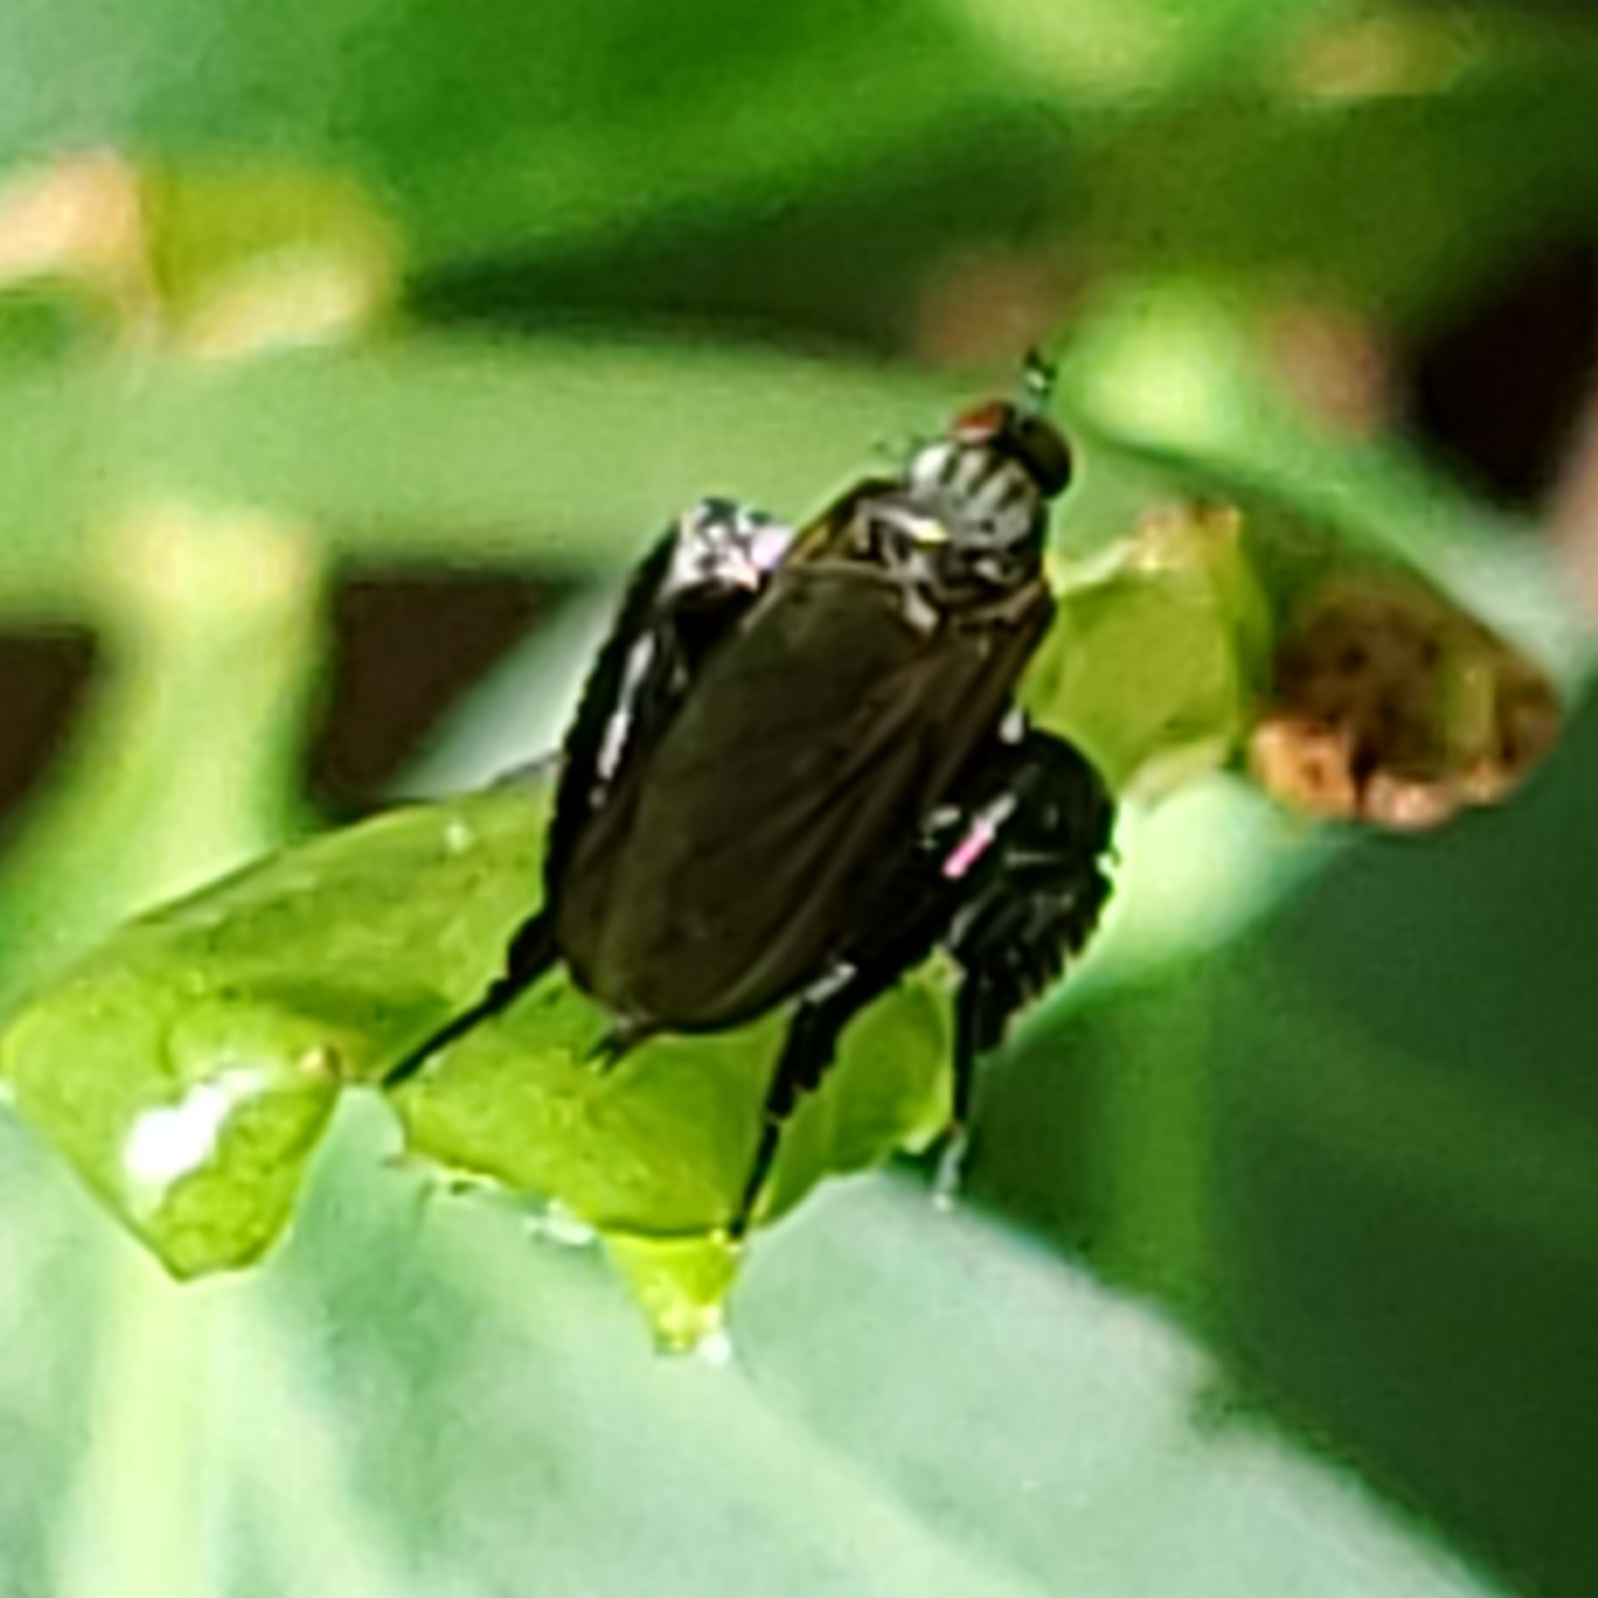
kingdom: Animalia
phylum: Arthropoda
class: Insecta
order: Diptera
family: Empididae
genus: Rhamphomyia
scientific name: Rhamphomyia longicauda
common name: Long-tailed dance fly
